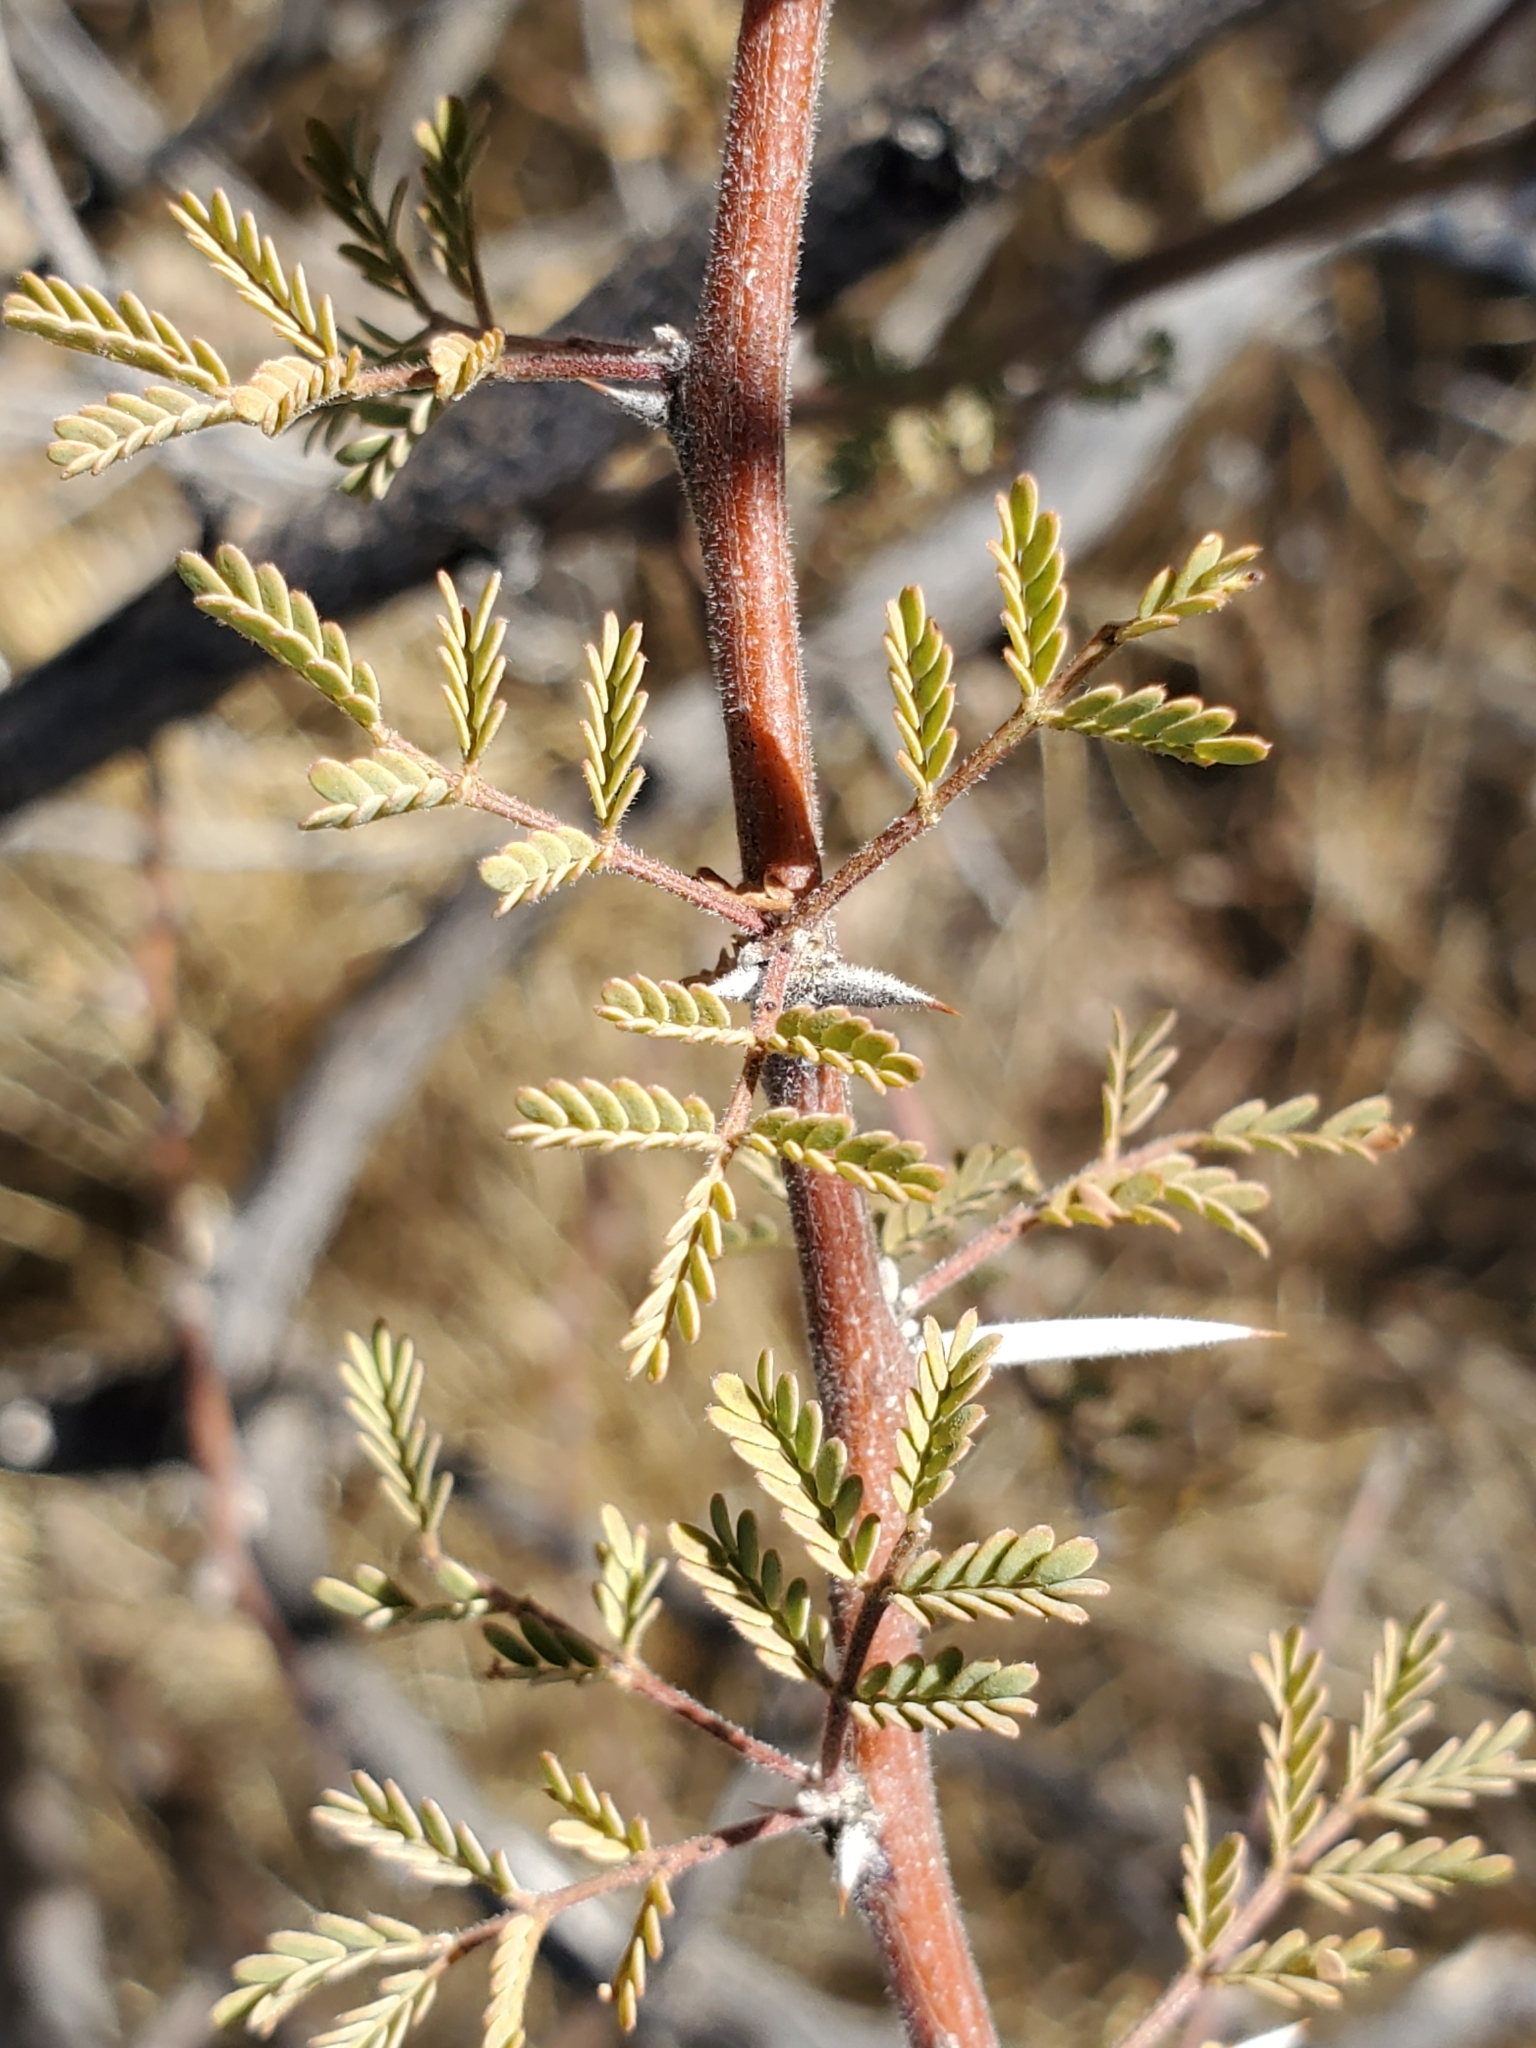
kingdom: Plantae
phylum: Tracheophyta
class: Magnoliopsida
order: Fabales
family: Fabaceae
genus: Vachellia
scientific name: Vachellia constricta
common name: Mescat acacia
